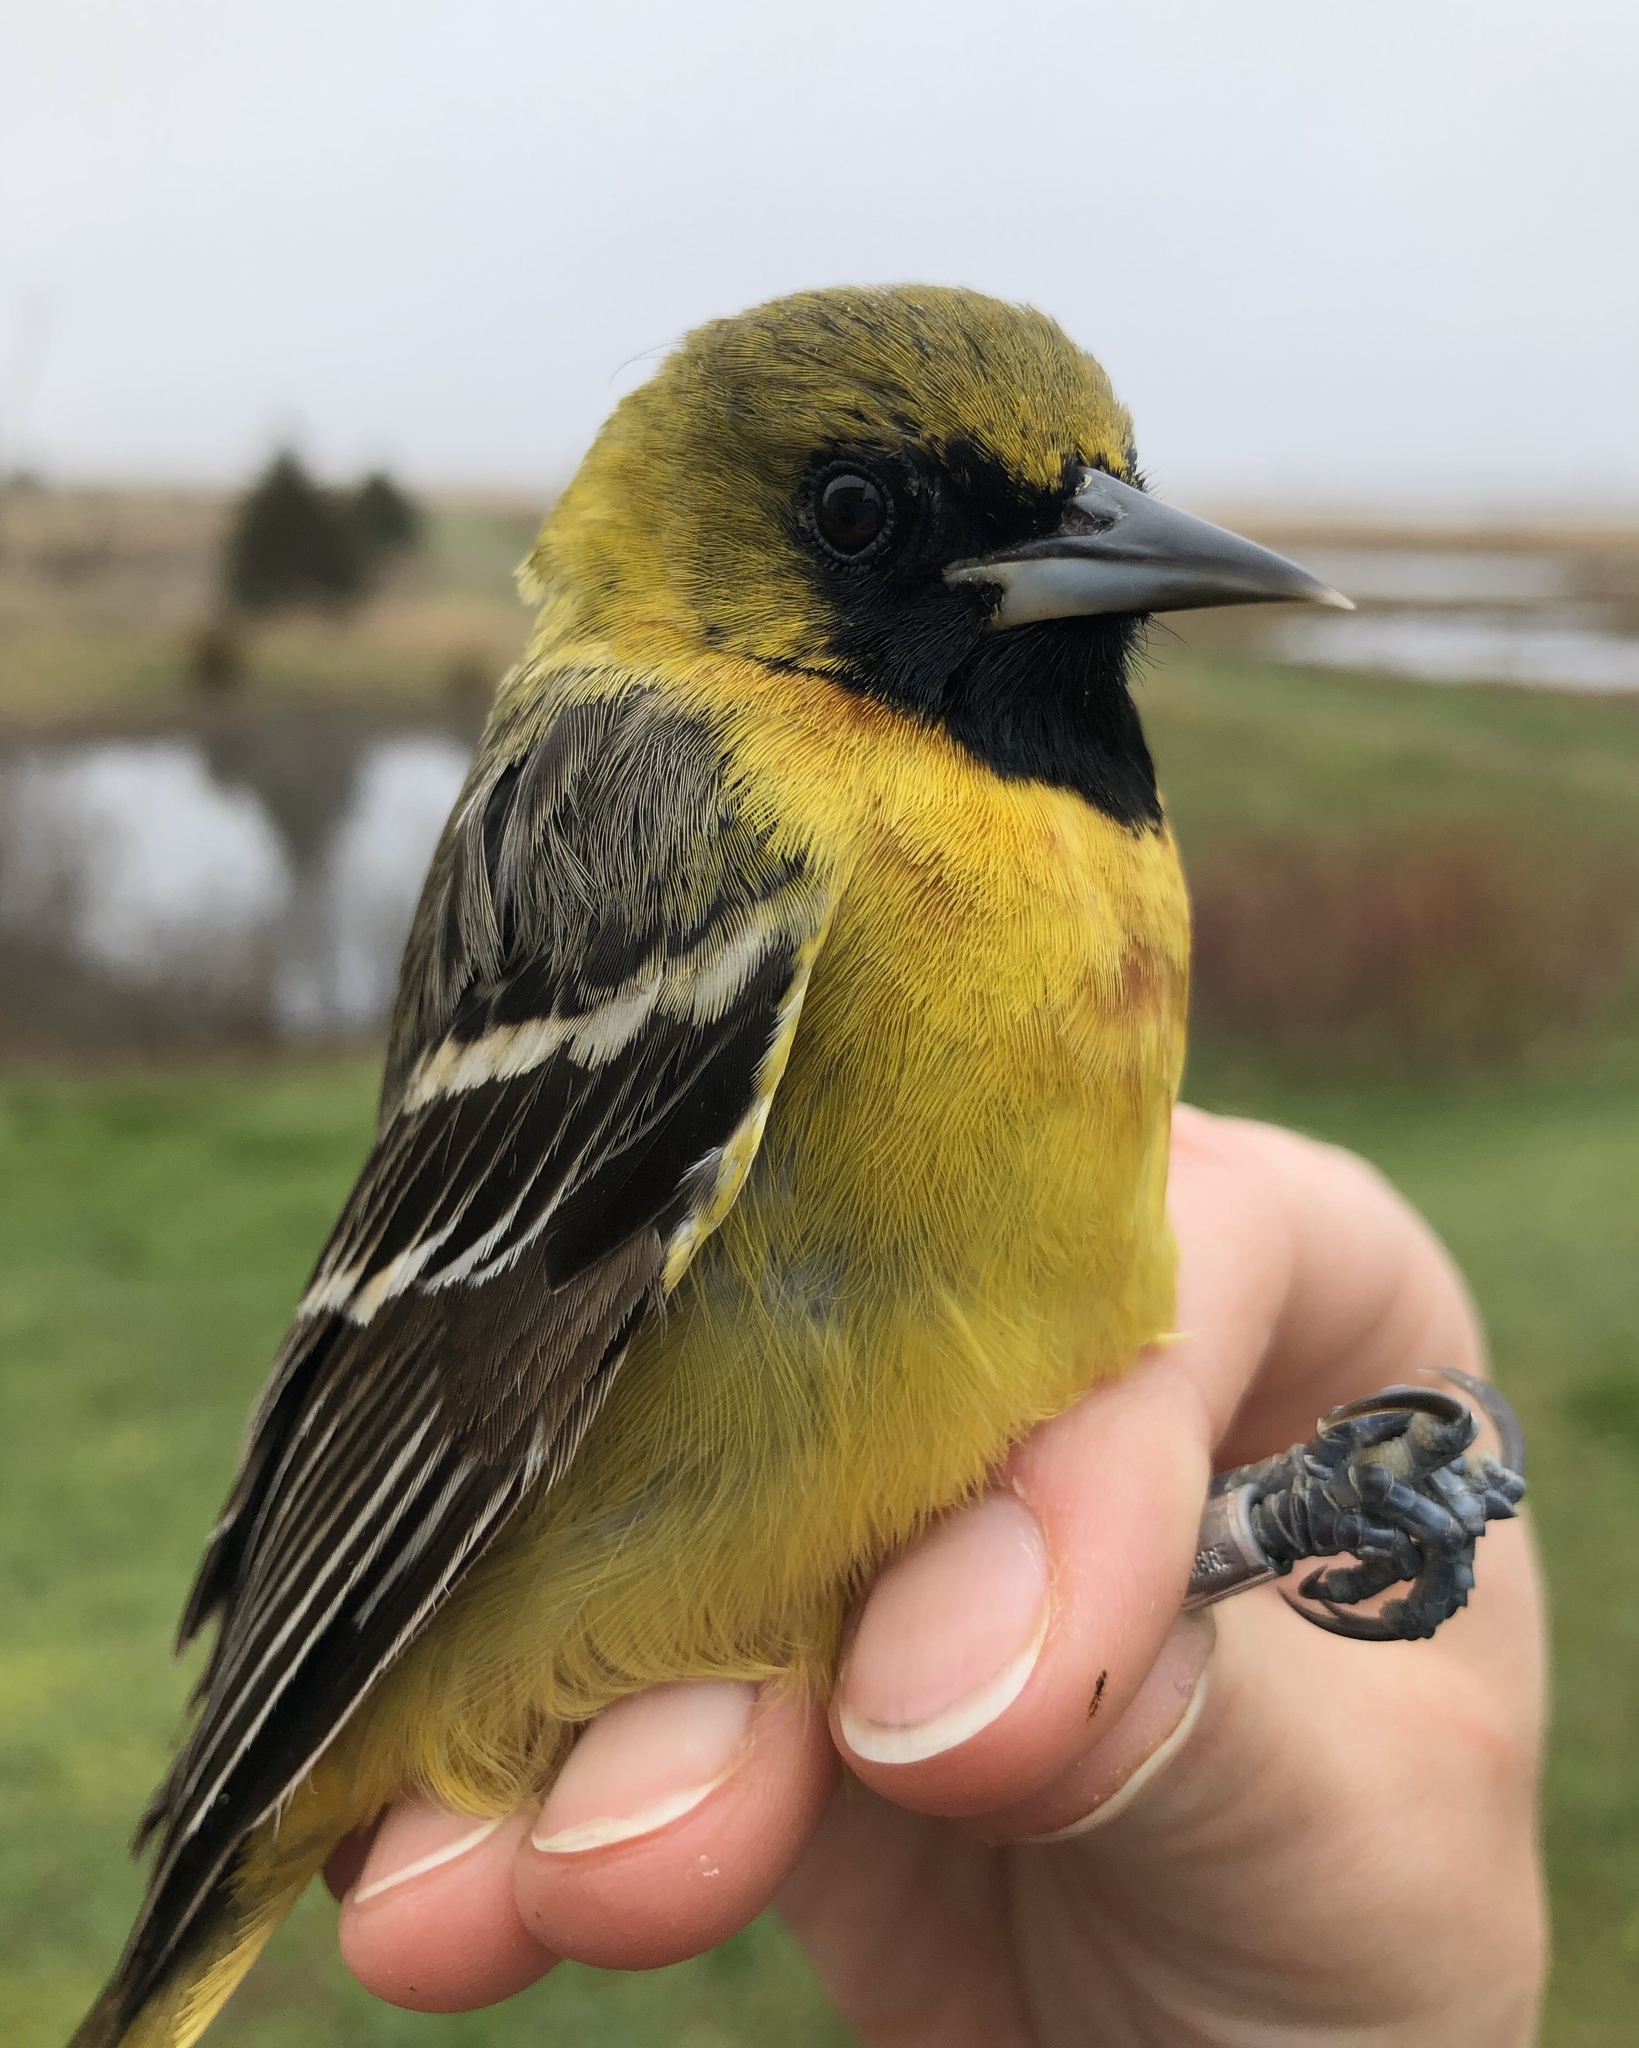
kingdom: Animalia
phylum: Chordata
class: Aves
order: Passeriformes
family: Icteridae
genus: Icterus
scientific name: Icterus spurius
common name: Orchard oriole
